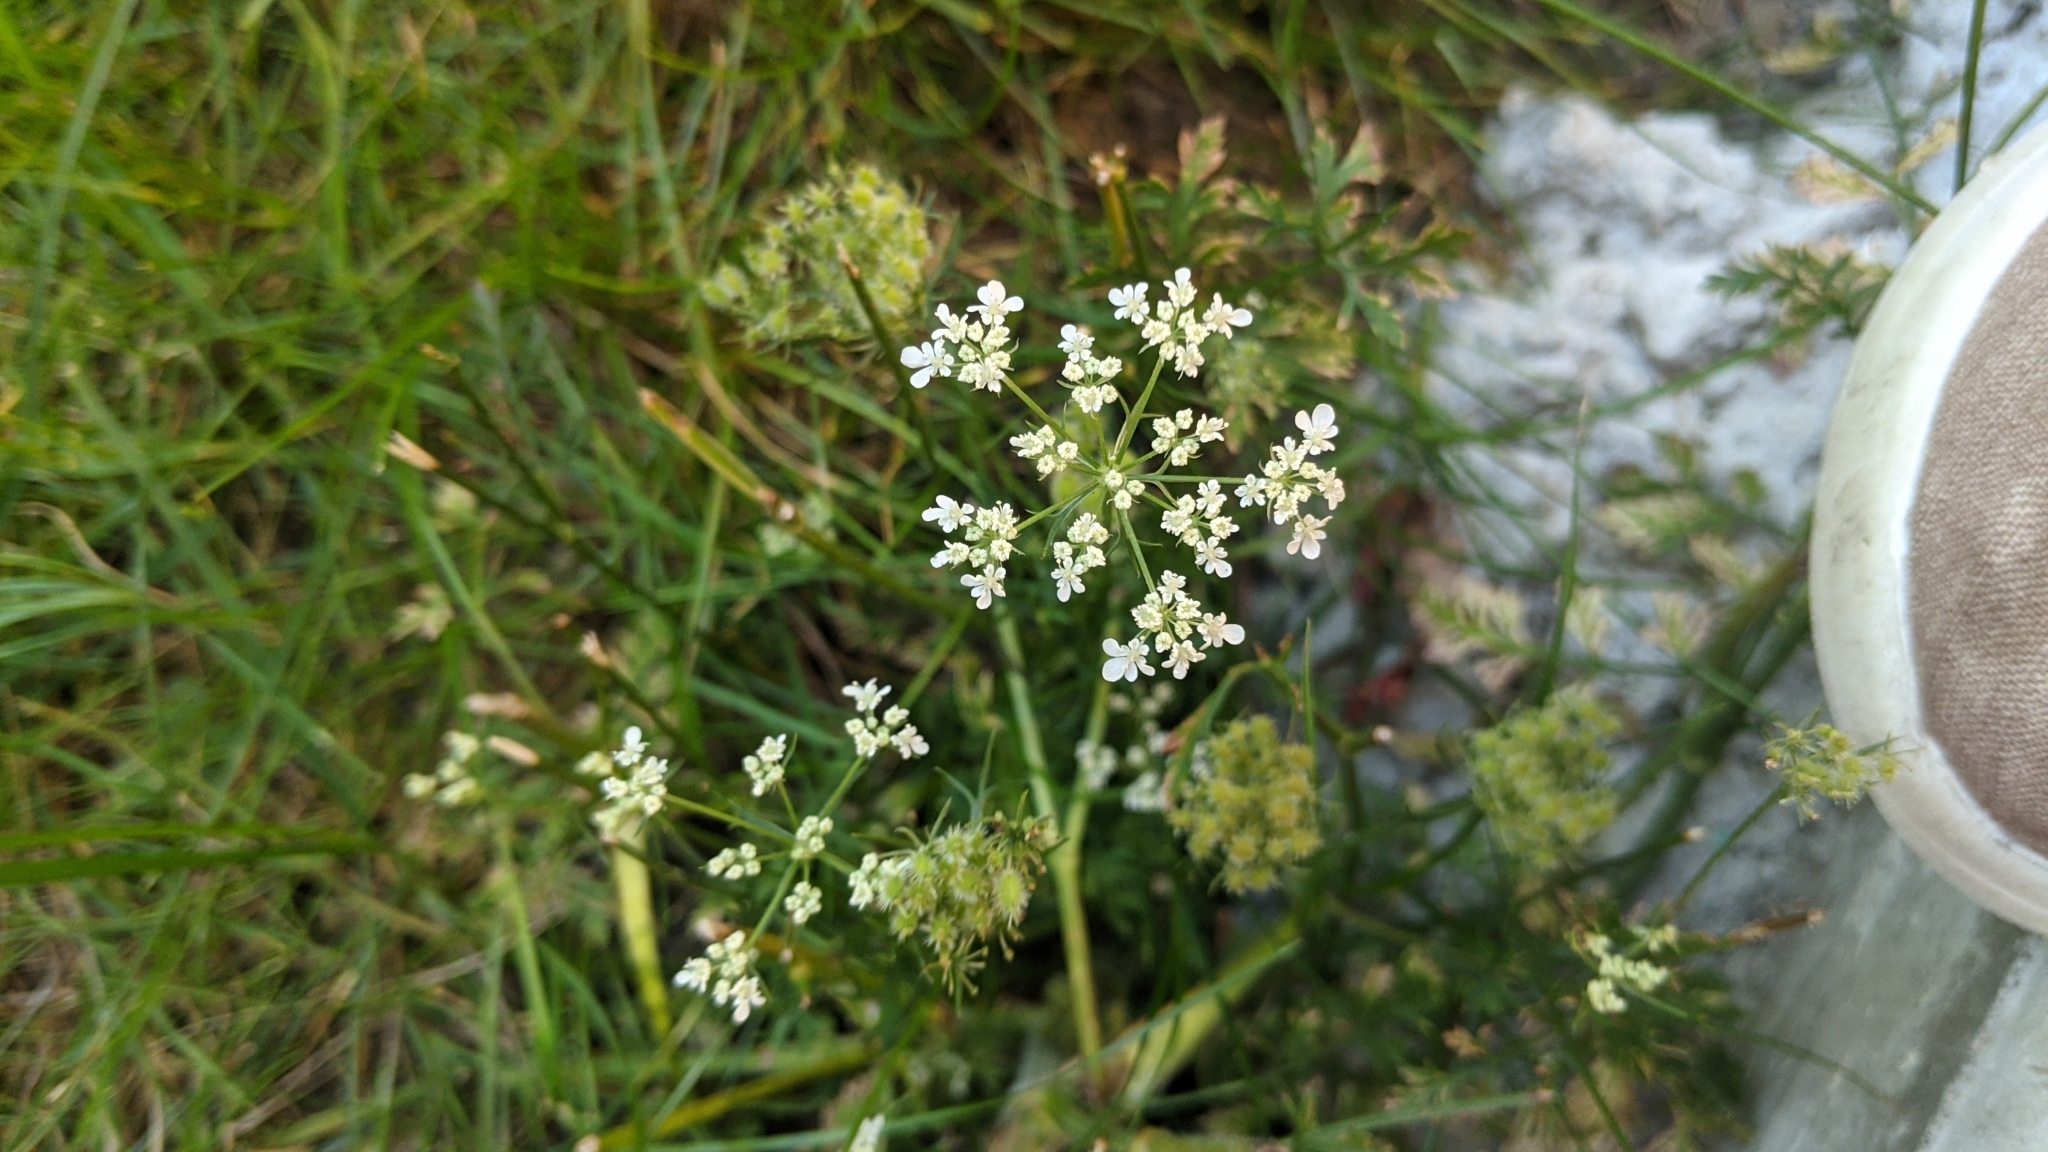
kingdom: Plantae
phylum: Tracheophyta
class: Magnoliopsida
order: Apiales
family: Apiaceae
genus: Daucus
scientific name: Daucus carota
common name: Wild carrot
